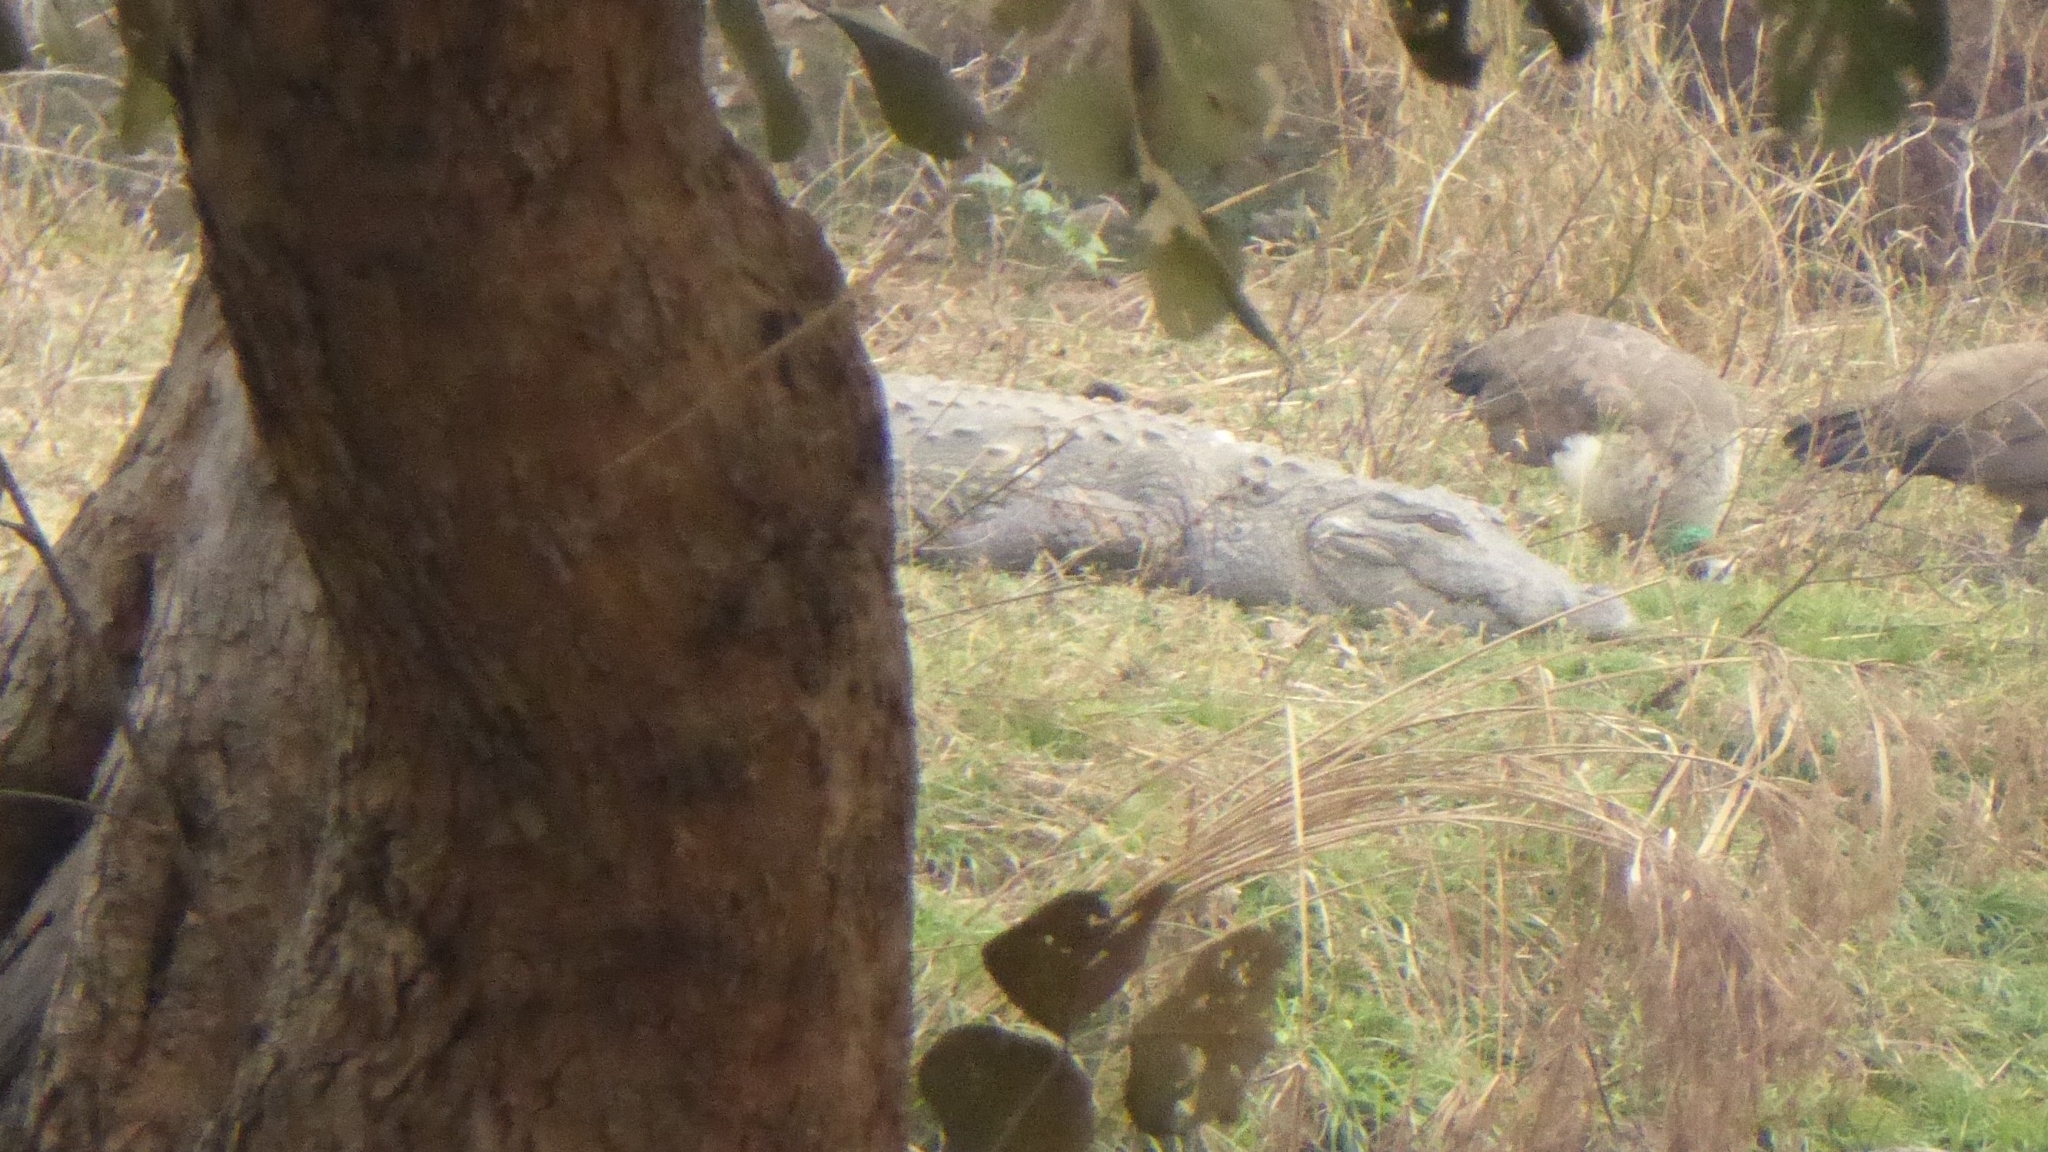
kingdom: Animalia
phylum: Chordata
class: Crocodylia
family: Crocodylidae
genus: Crocodylus
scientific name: Crocodylus palustris
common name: Mugger crocodile
